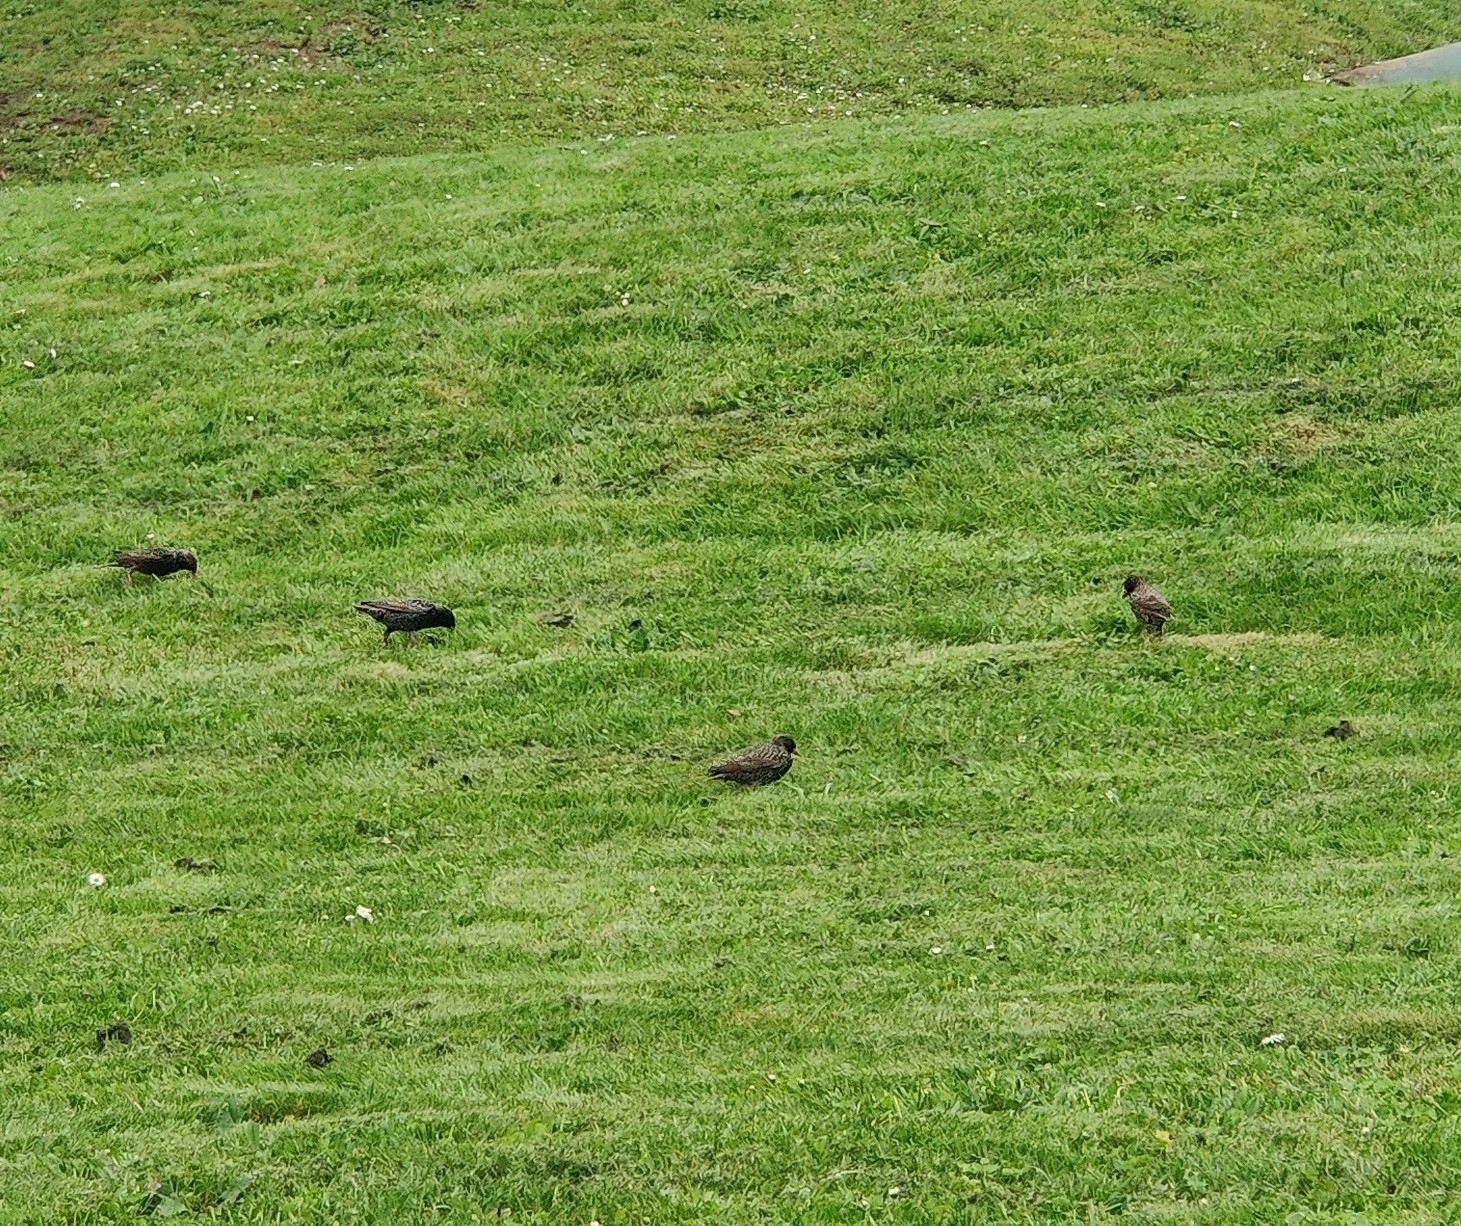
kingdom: Animalia
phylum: Chordata
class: Aves
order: Passeriformes
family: Sturnidae
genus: Sturnus
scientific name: Sturnus vulgaris
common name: Common starling
